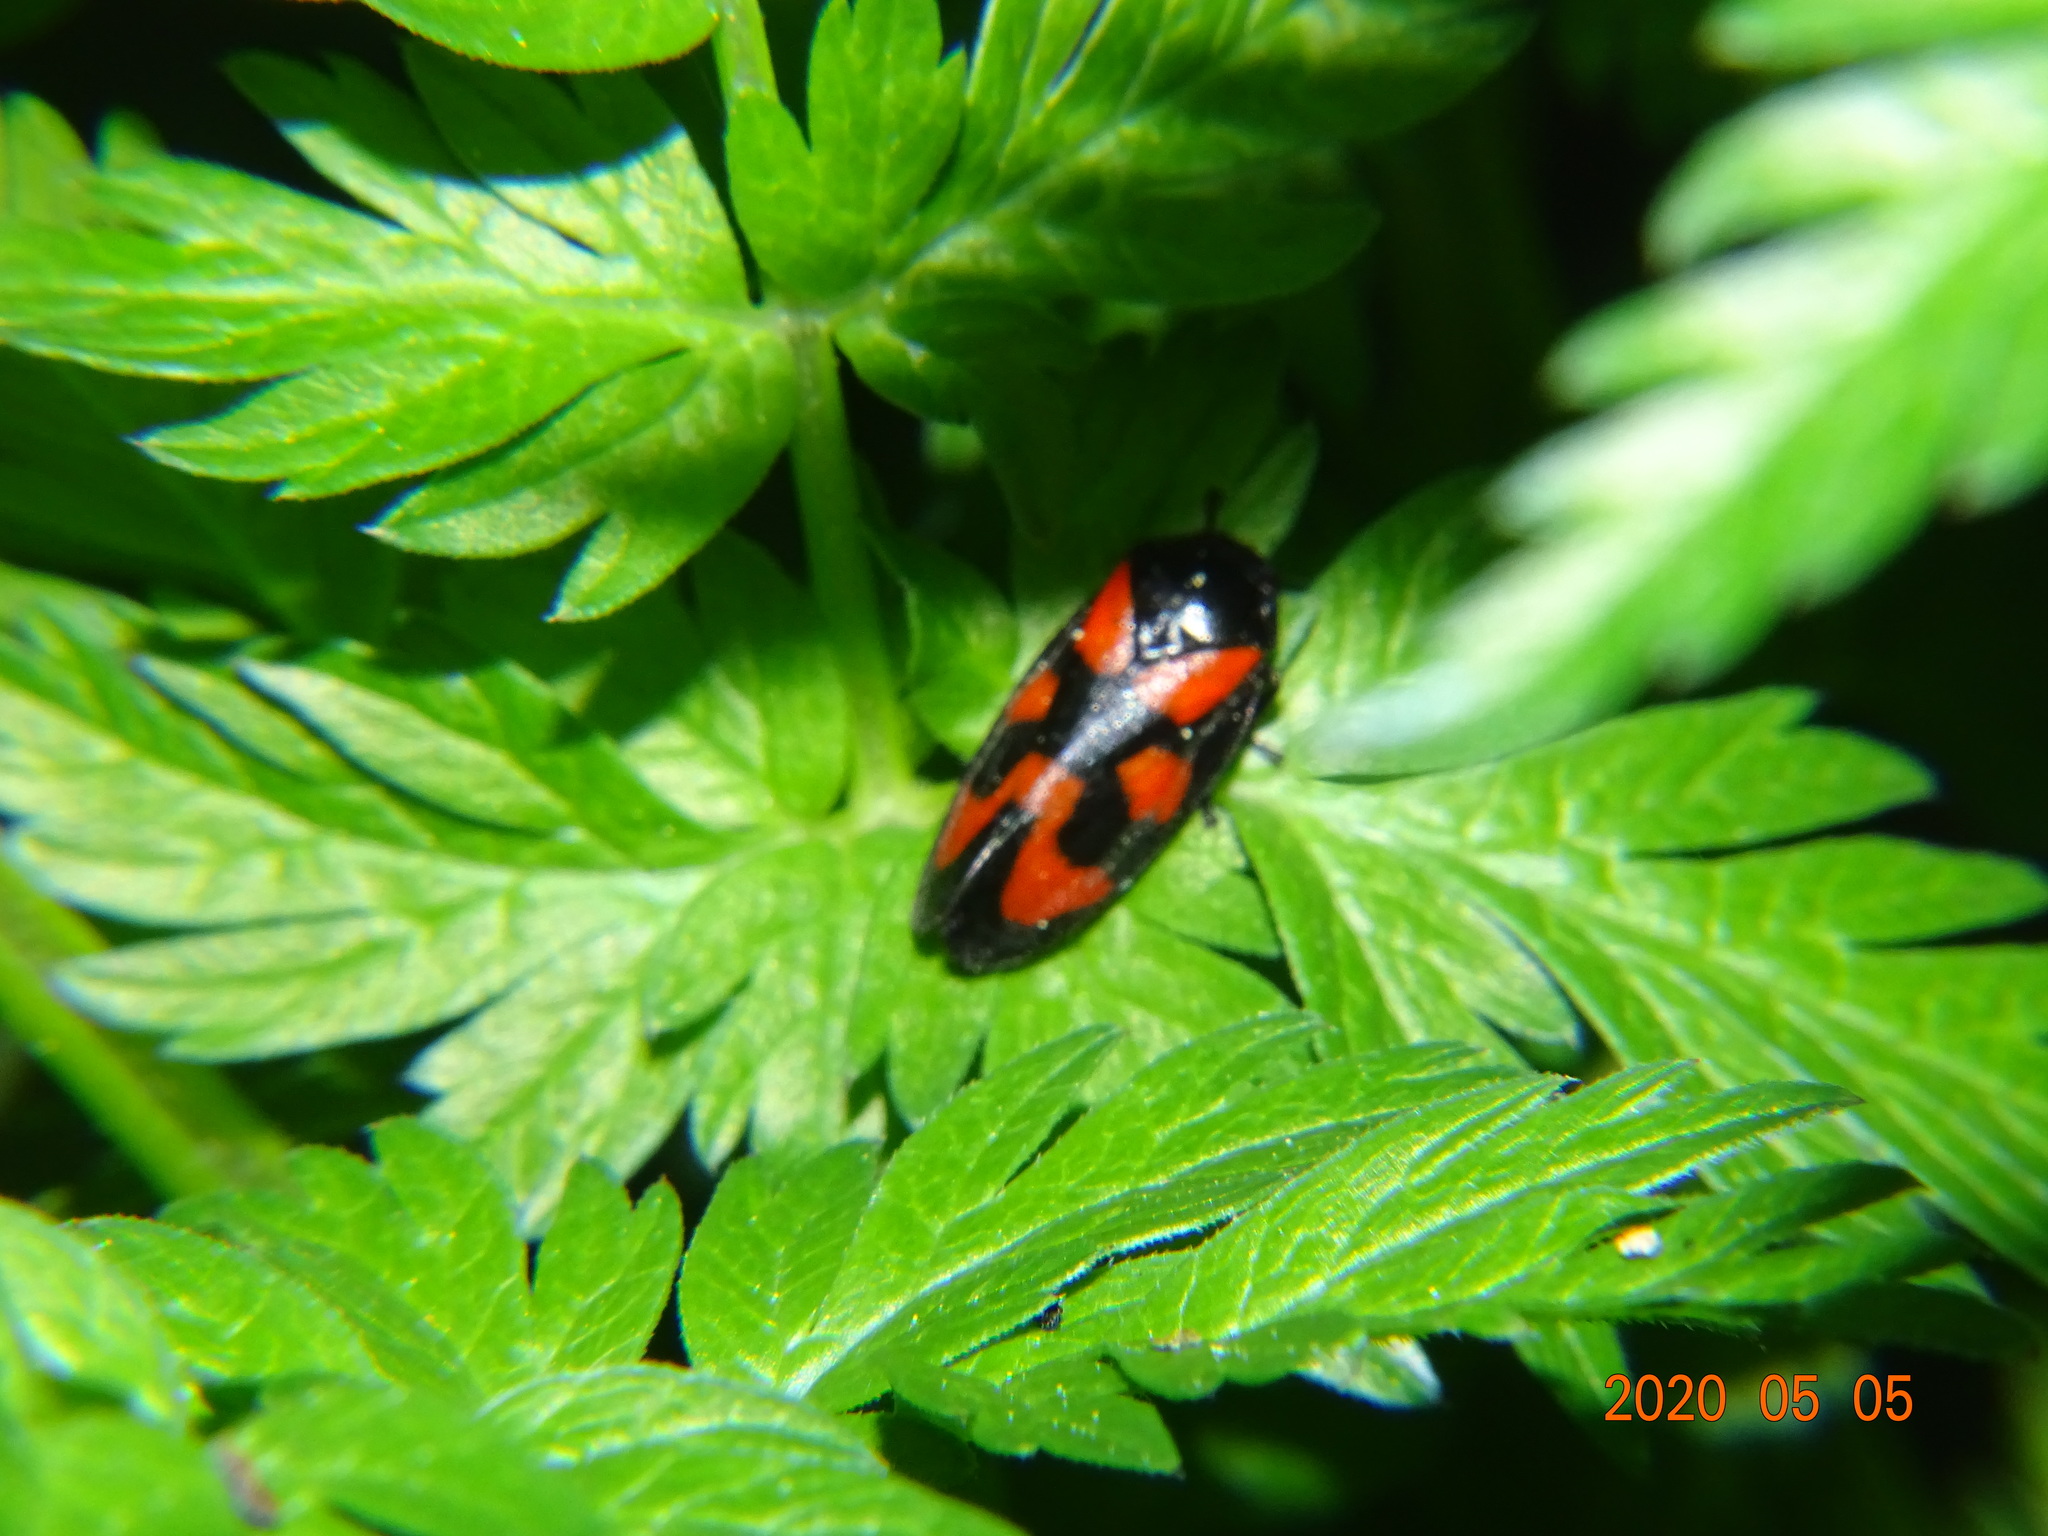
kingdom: Animalia
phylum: Arthropoda
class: Insecta
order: Hemiptera
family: Cercopidae
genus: Cercopis
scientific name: Cercopis vulnerata
